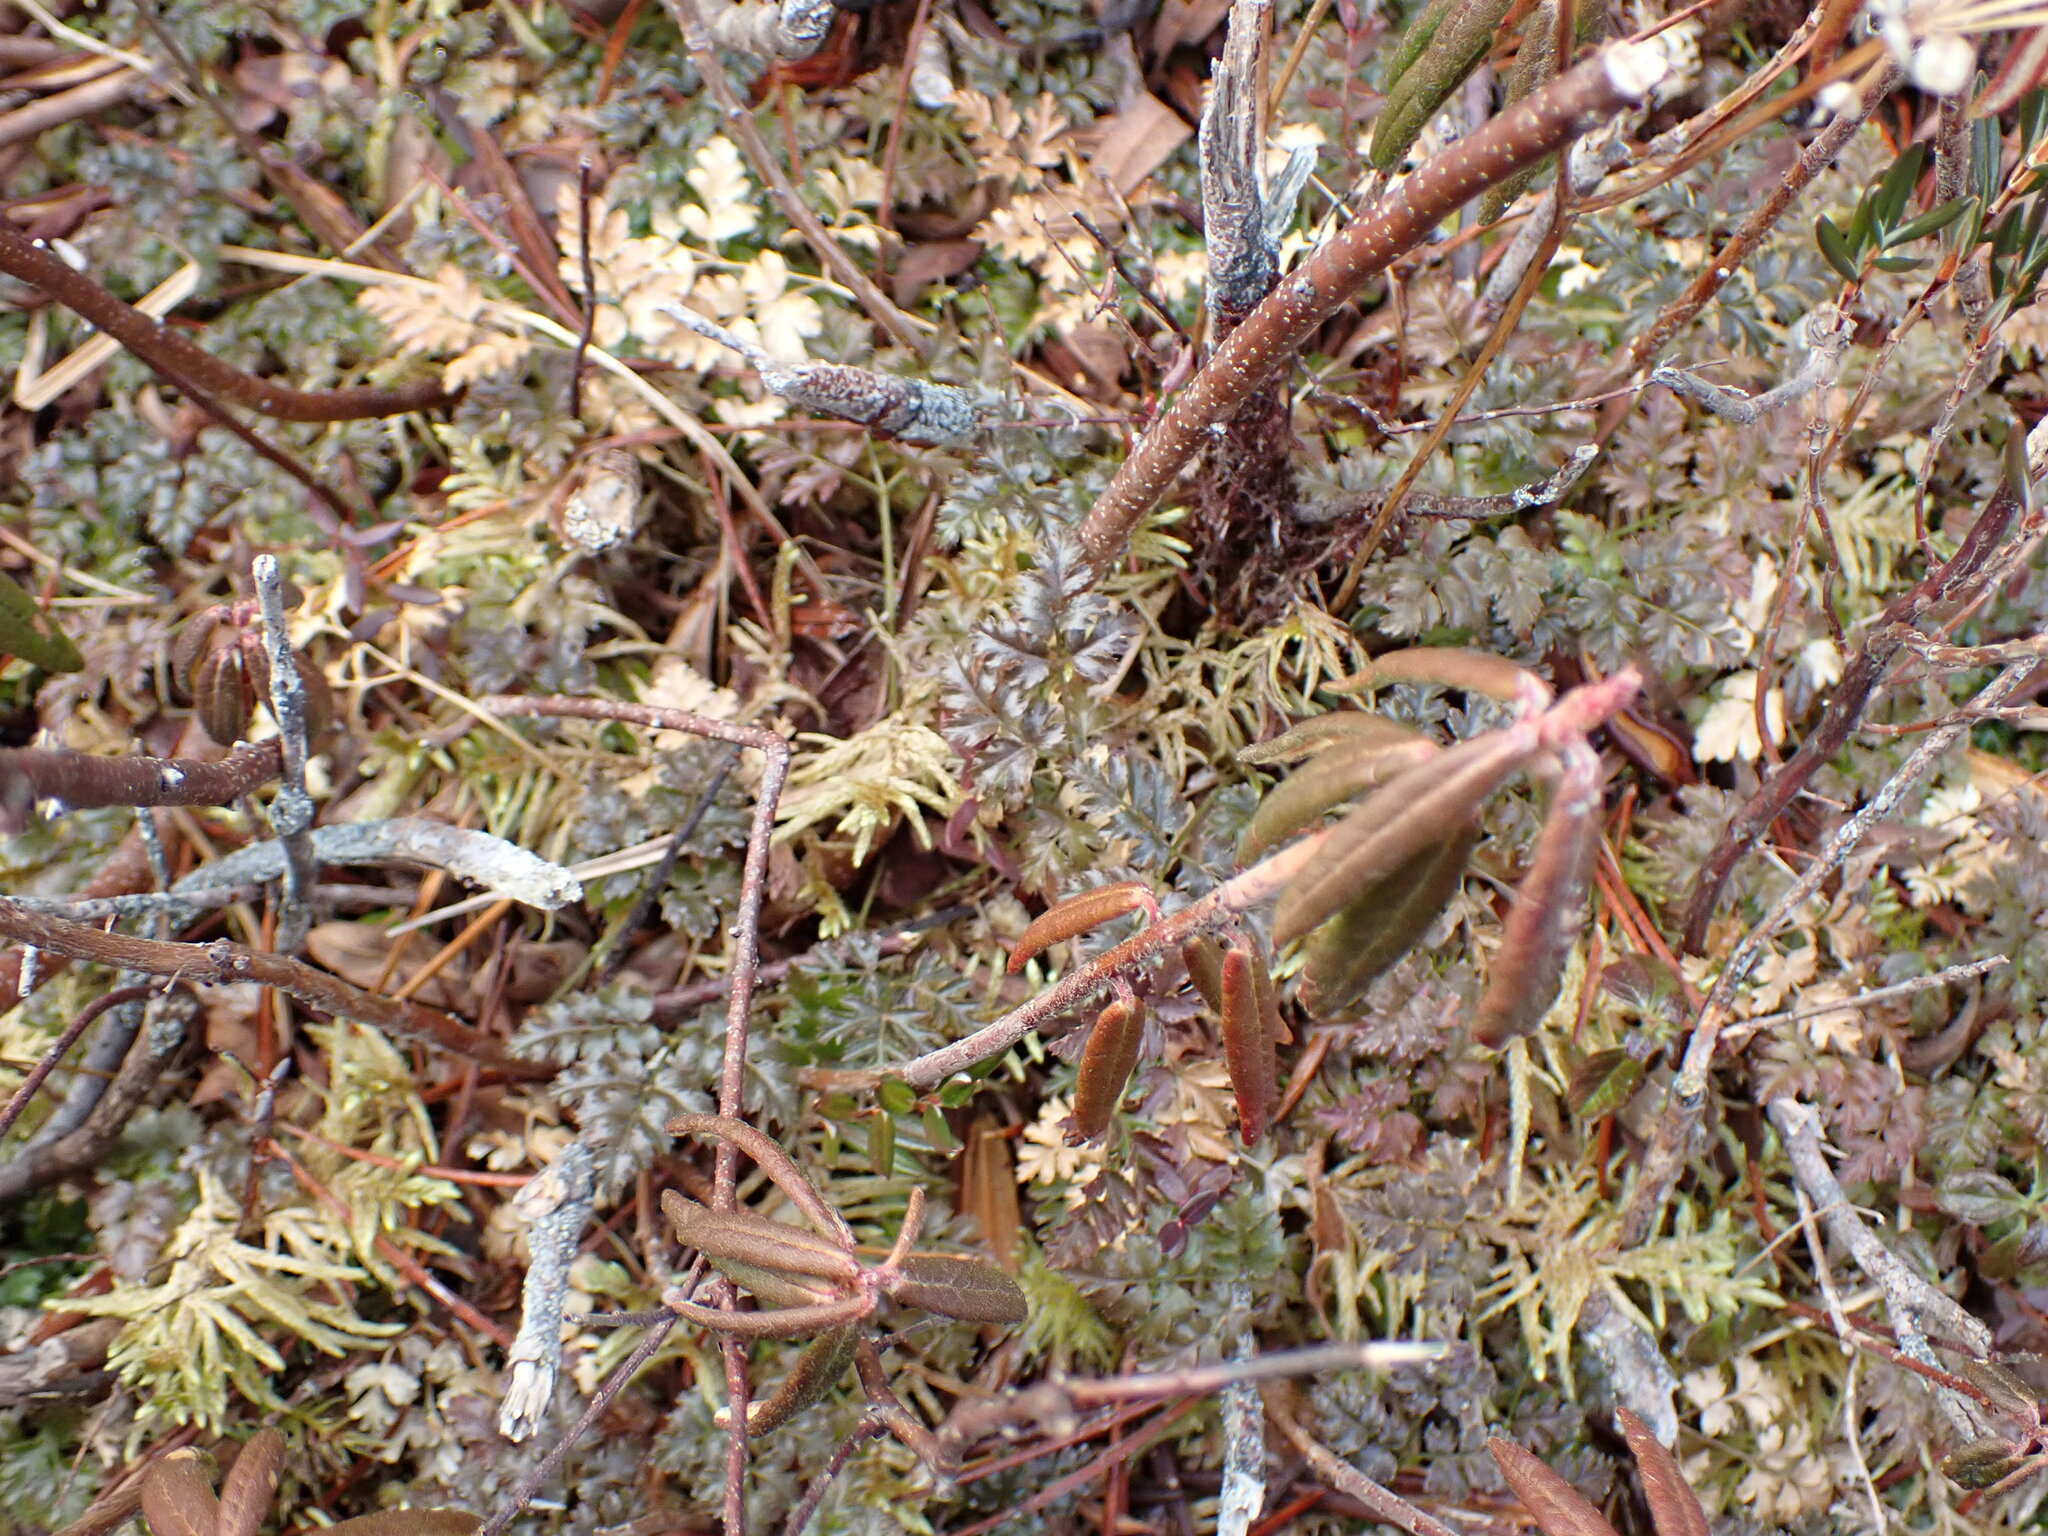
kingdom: Plantae
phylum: Tracheophyta
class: Magnoliopsida
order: Ranunculales
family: Ranunculaceae
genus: Coptis
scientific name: Coptis aspleniifolia
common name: Fern-leaved goldthread
